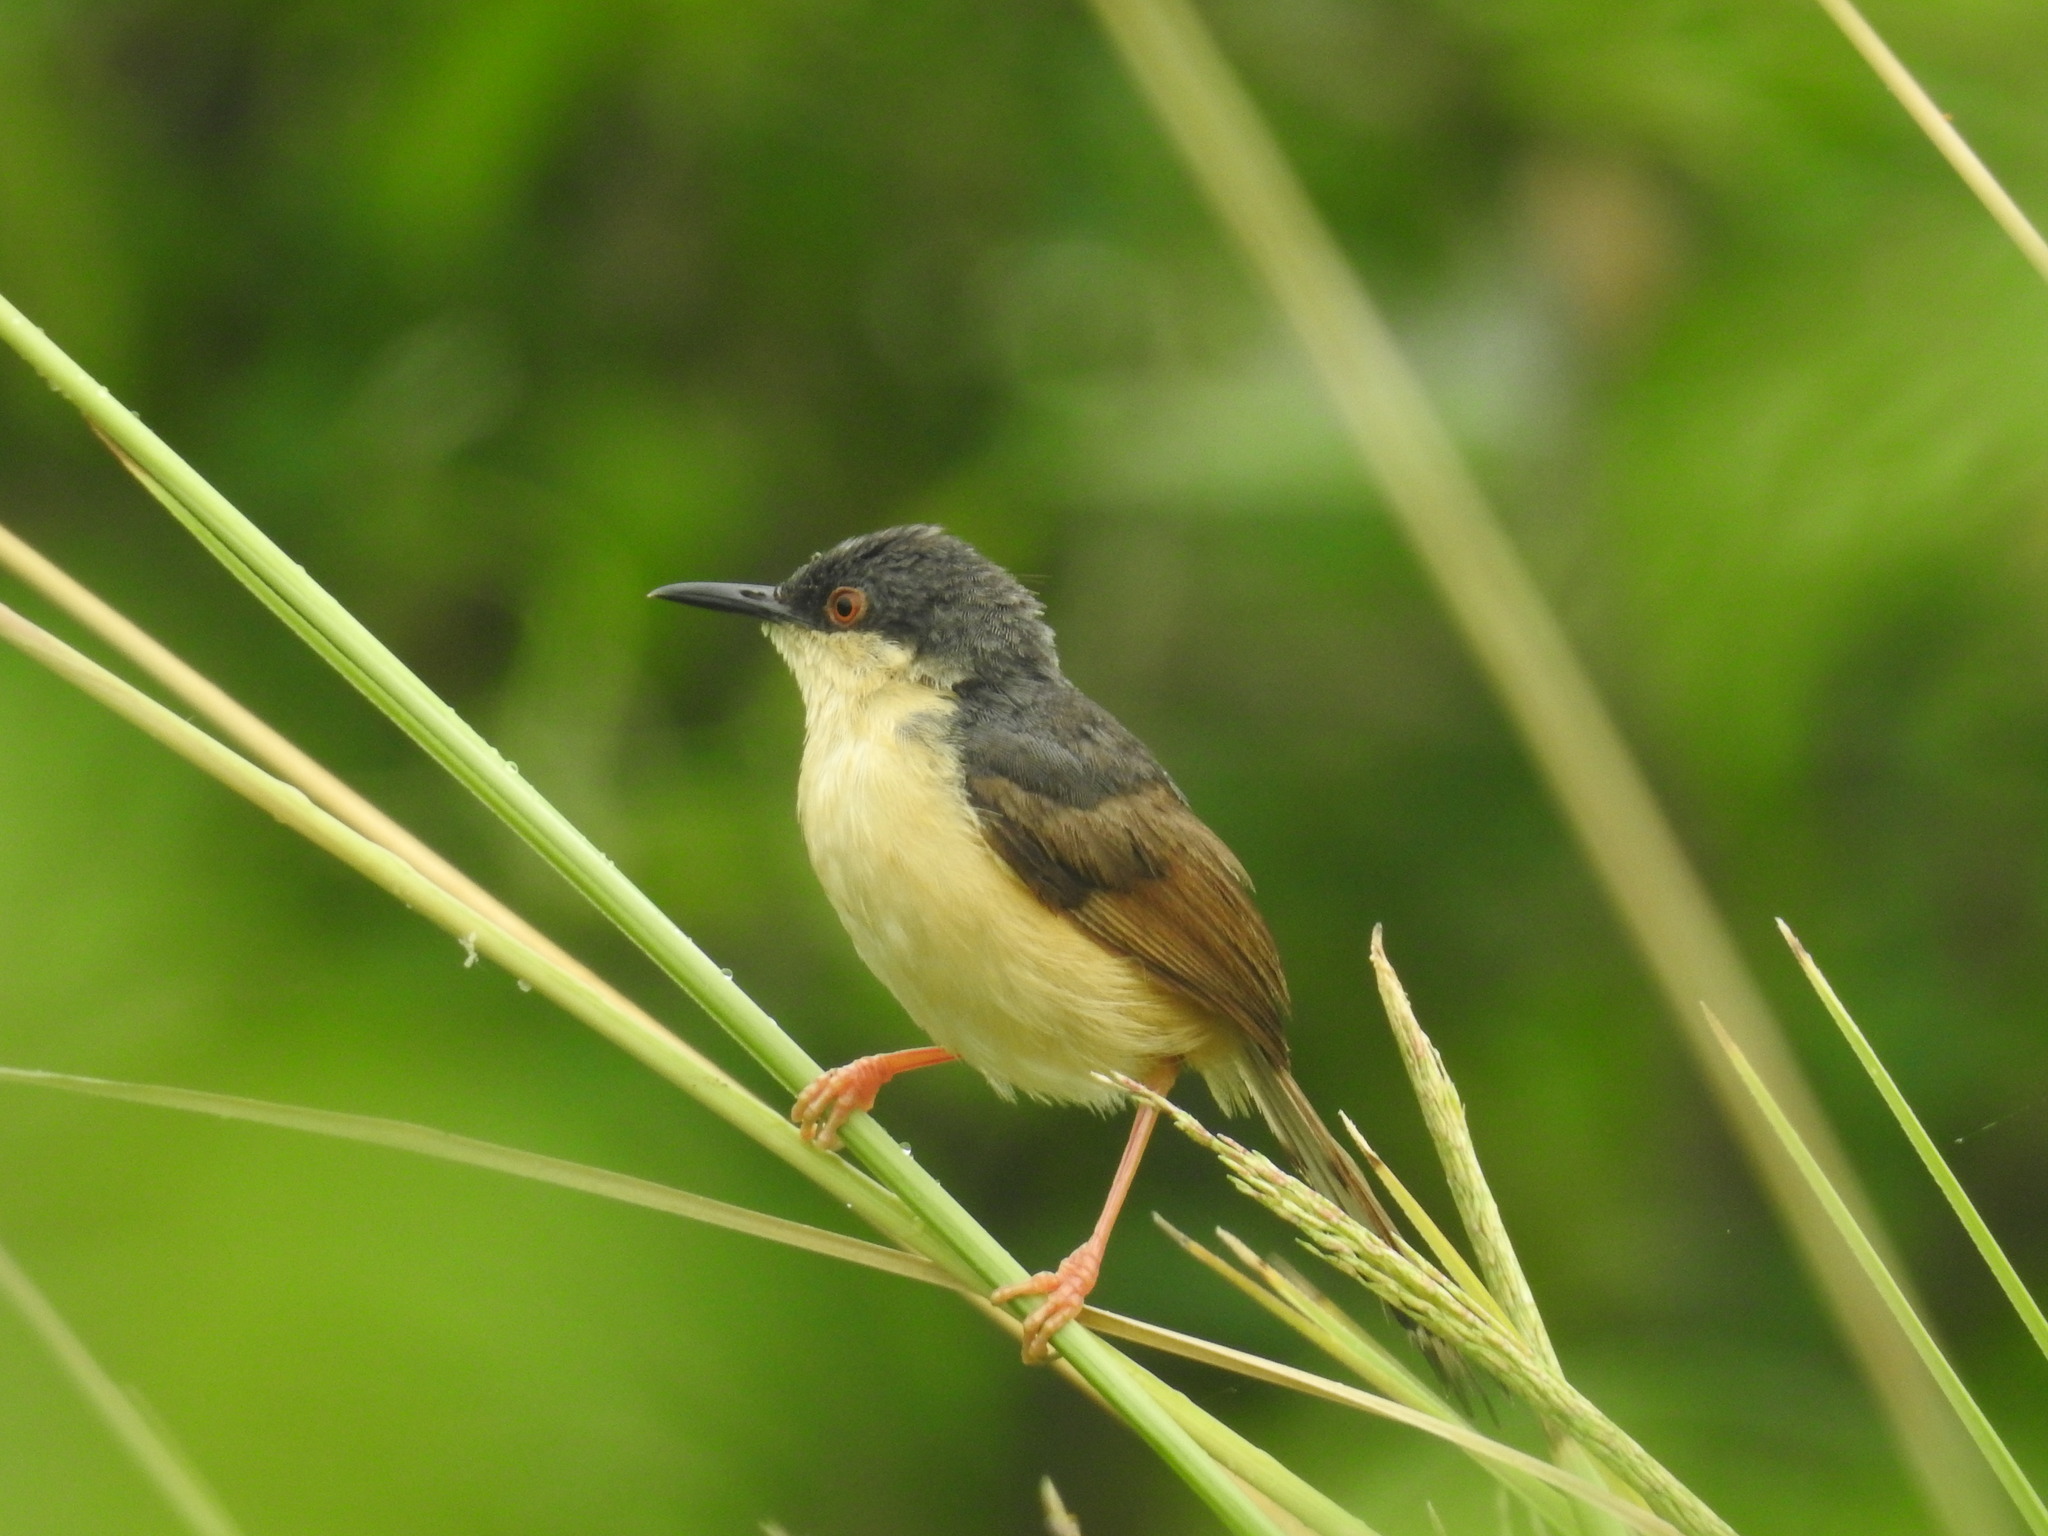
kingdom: Animalia
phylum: Chordata
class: Aves
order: Passeriformes
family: Cisticolidae
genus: Prinia
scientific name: Prinia socialis
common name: Ashy prinia
